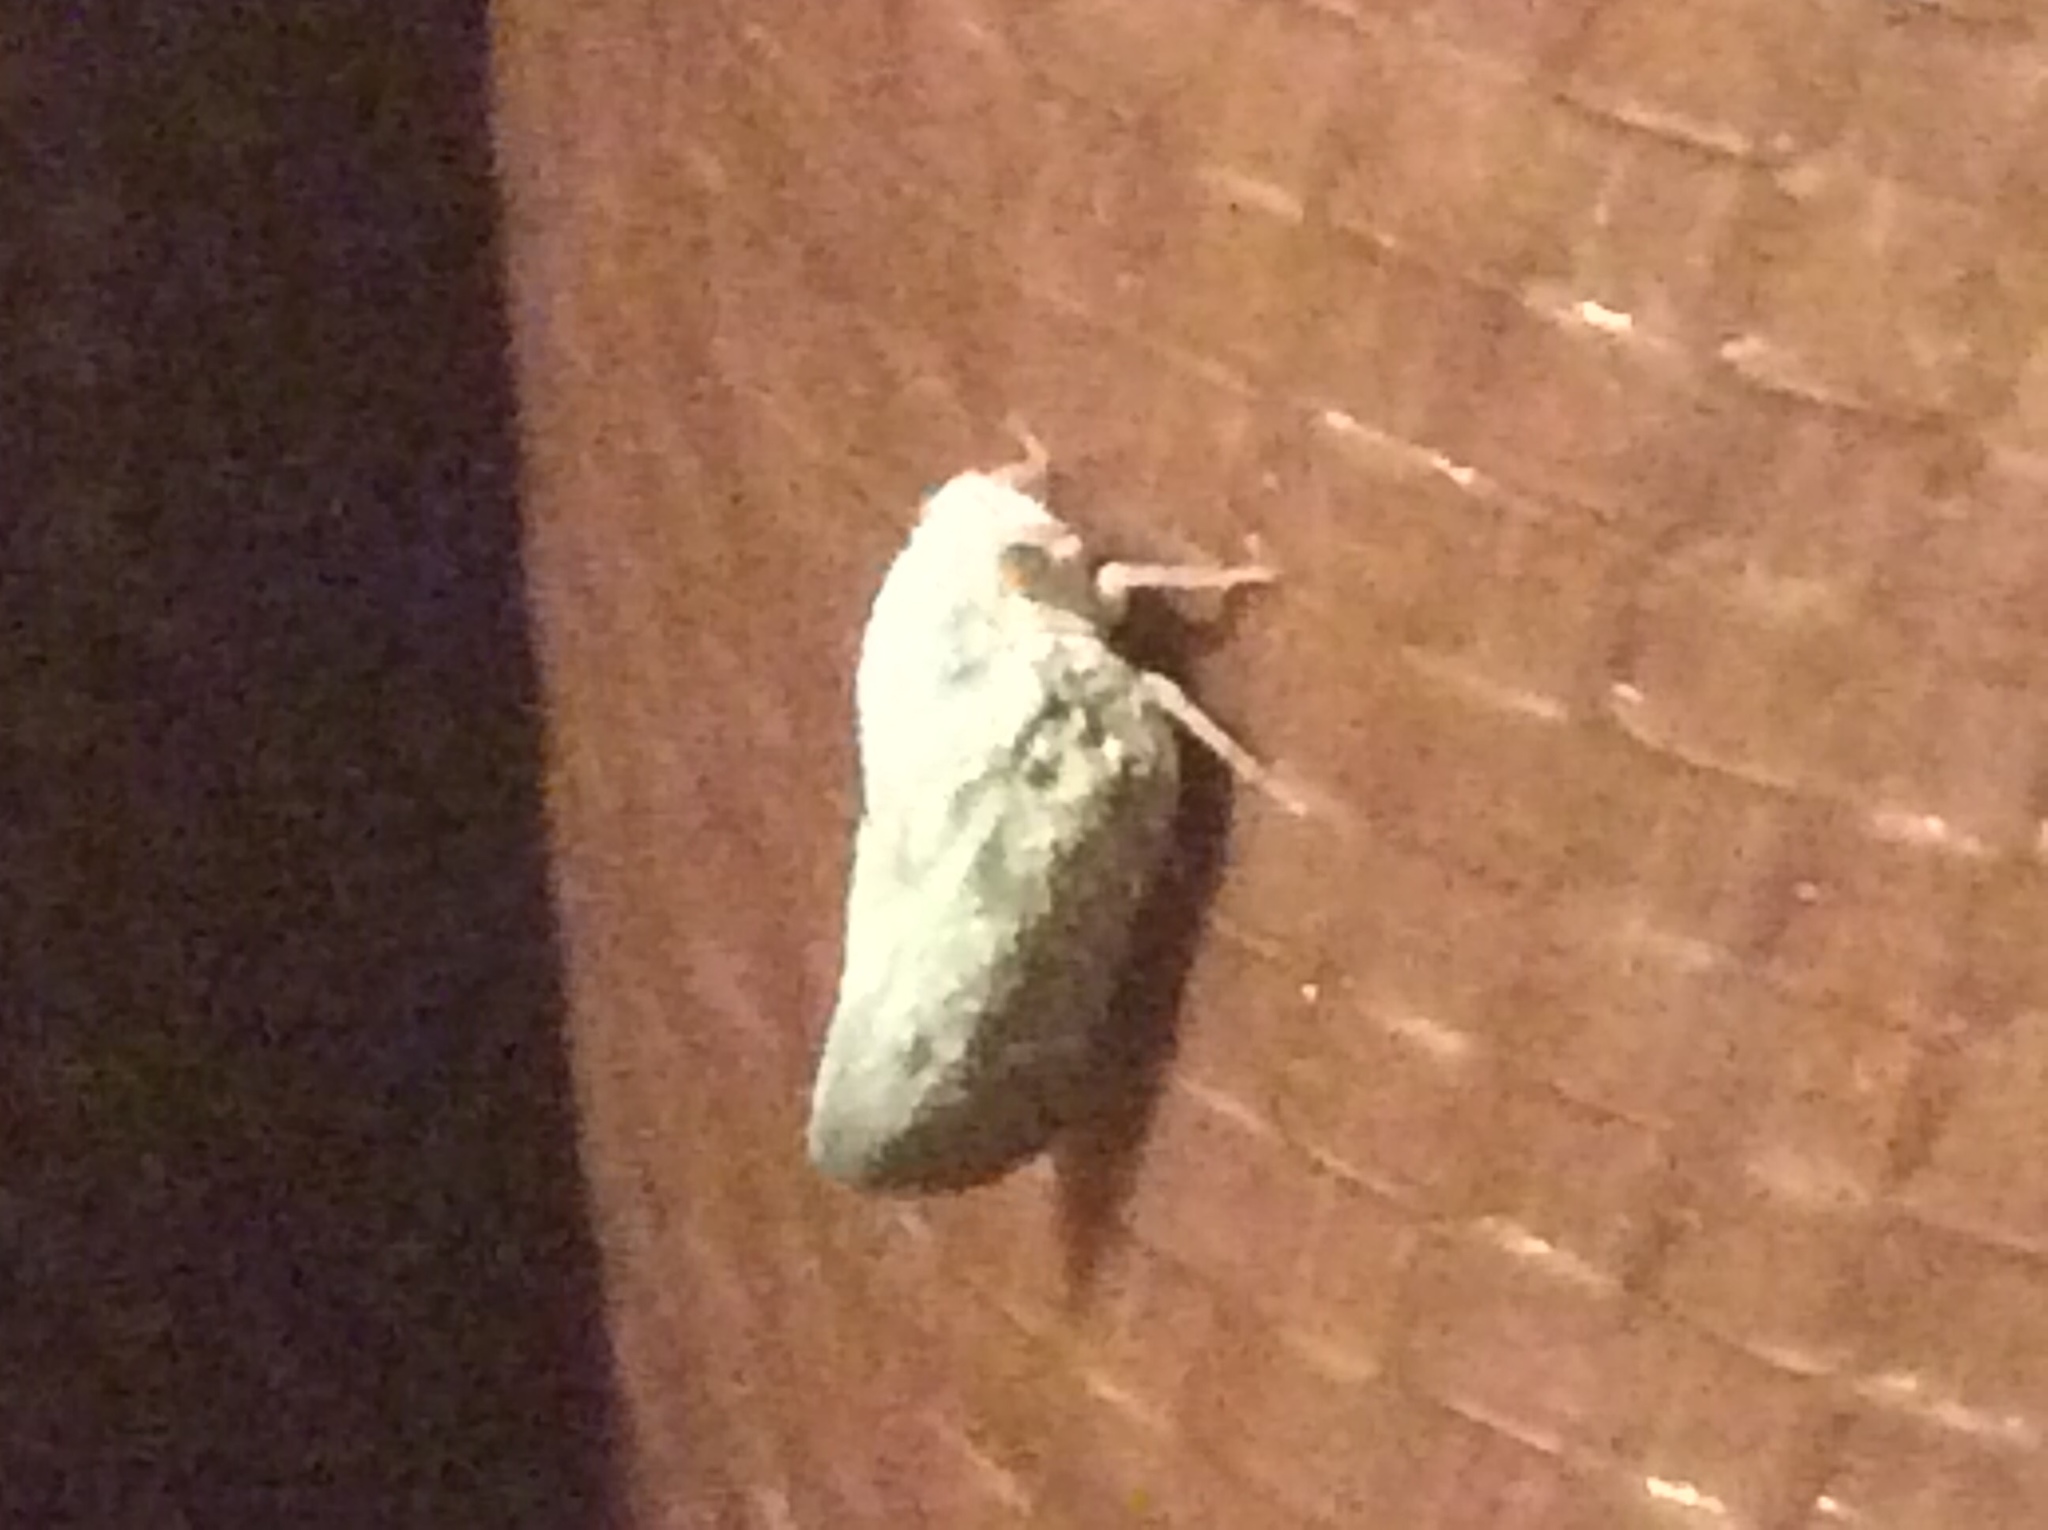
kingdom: Animalia
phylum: Arthropoda
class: Insecta
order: Hemiptera
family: Flatidae
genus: Metcalfa
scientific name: Metcalfa pruinosa
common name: Citrus flatid planthopper
